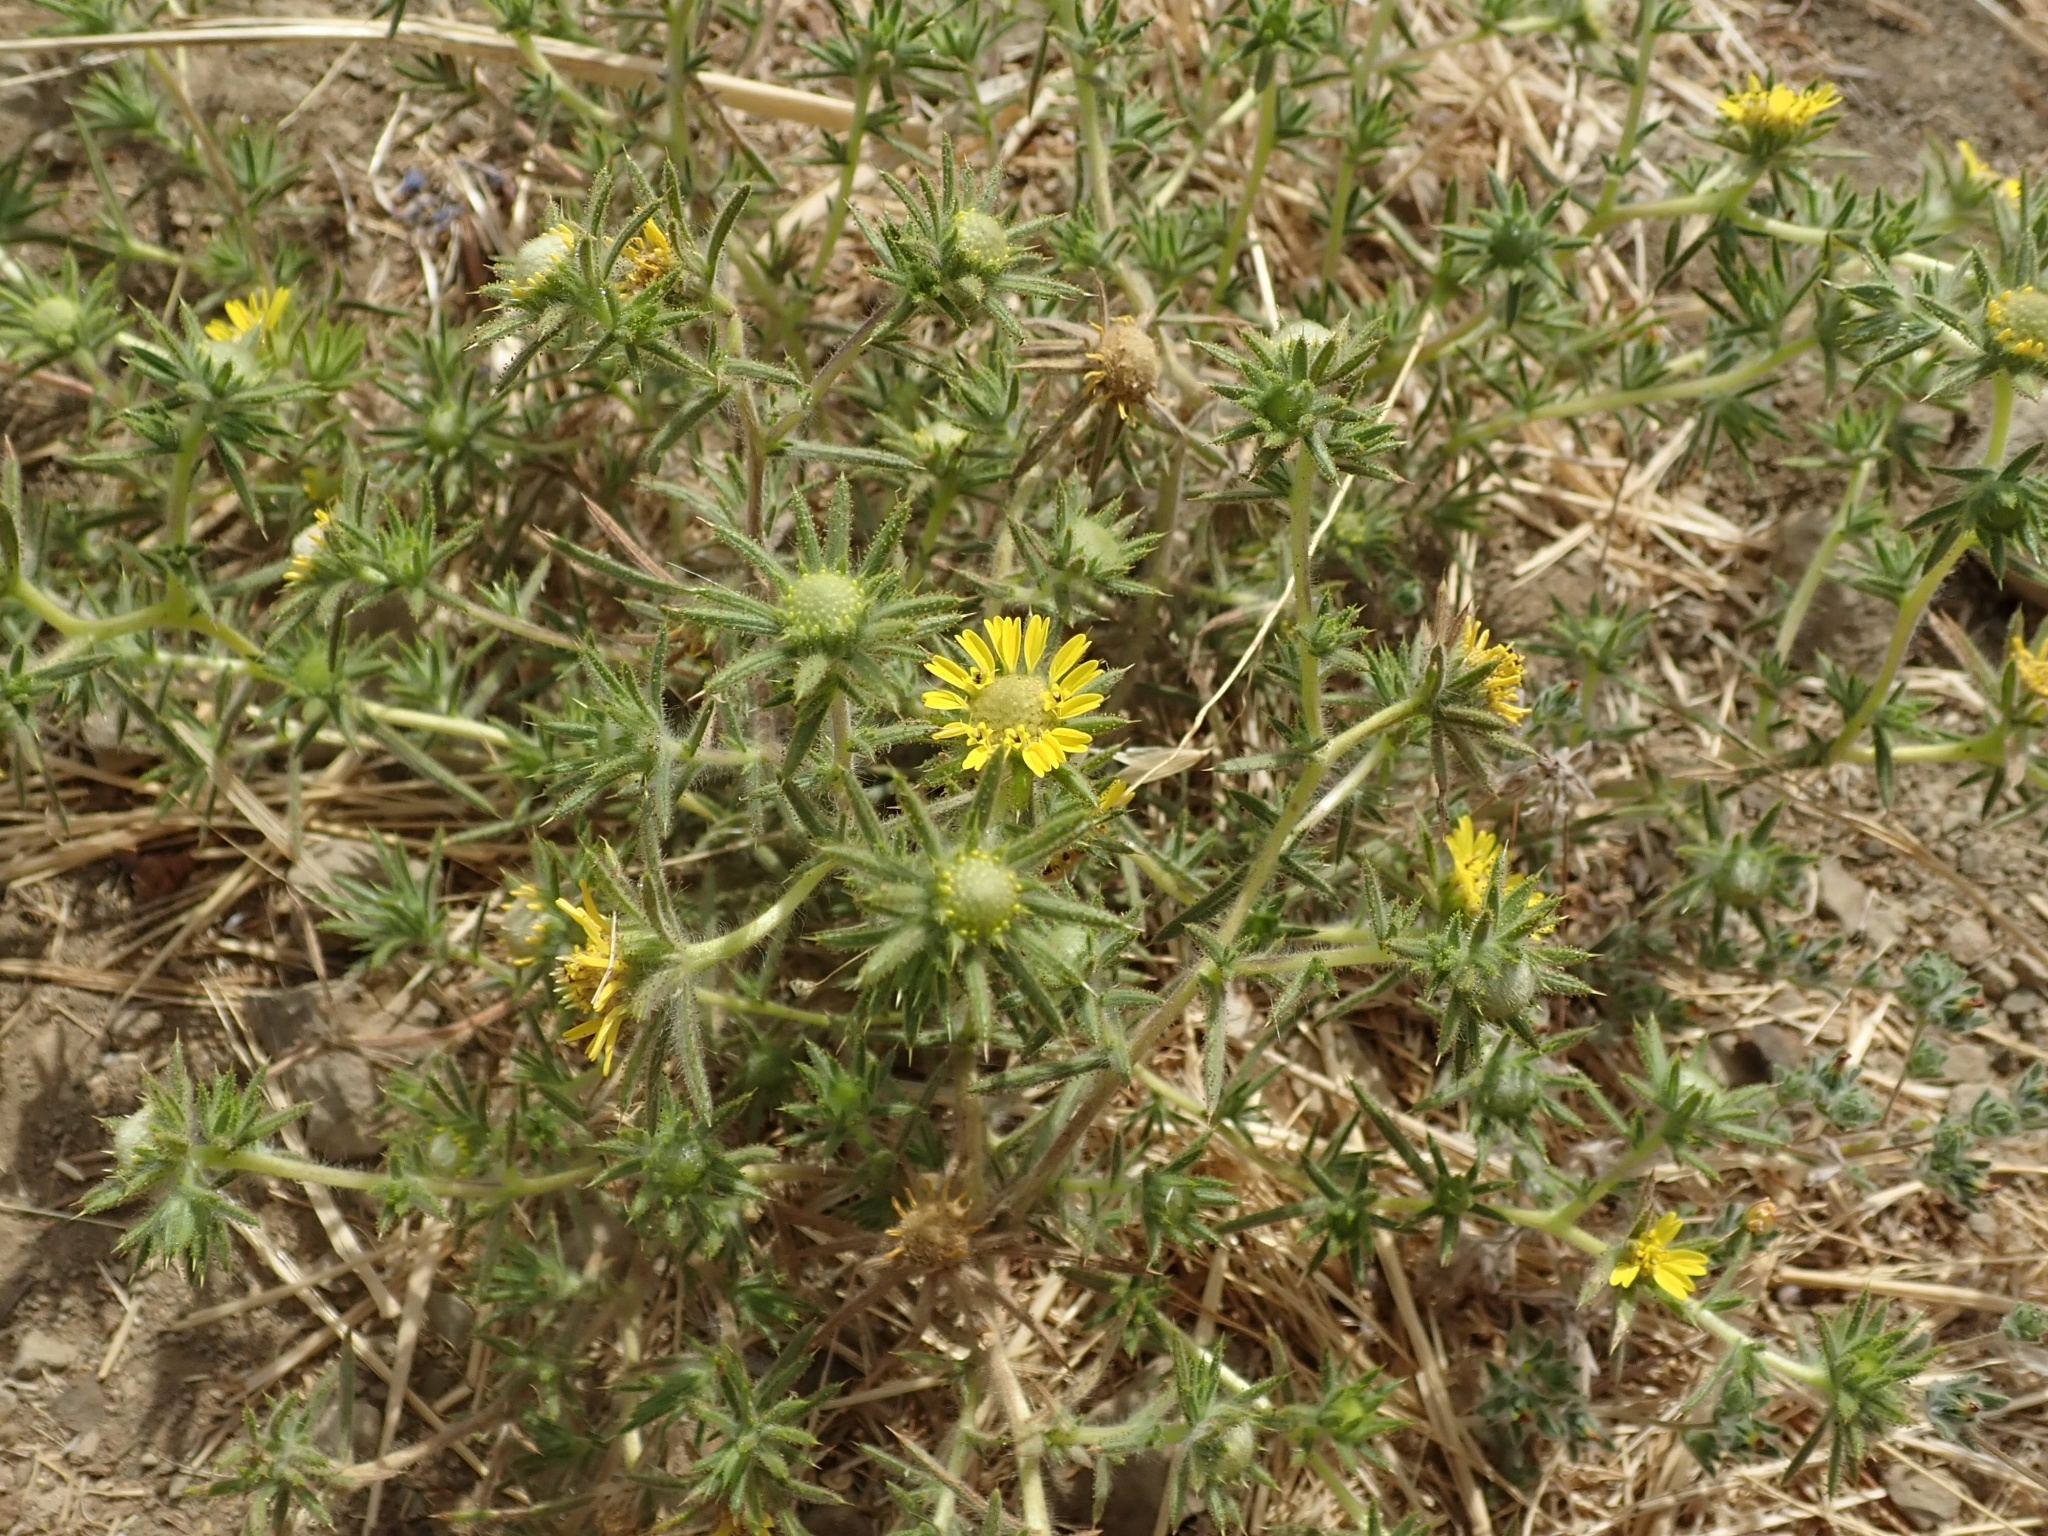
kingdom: Plantae
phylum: Tracheophyta
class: Magnoliopsida
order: Asterales
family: Asteraceae
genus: Centromadia
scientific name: Centromadia fitchii
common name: Fitch's spikeweed
